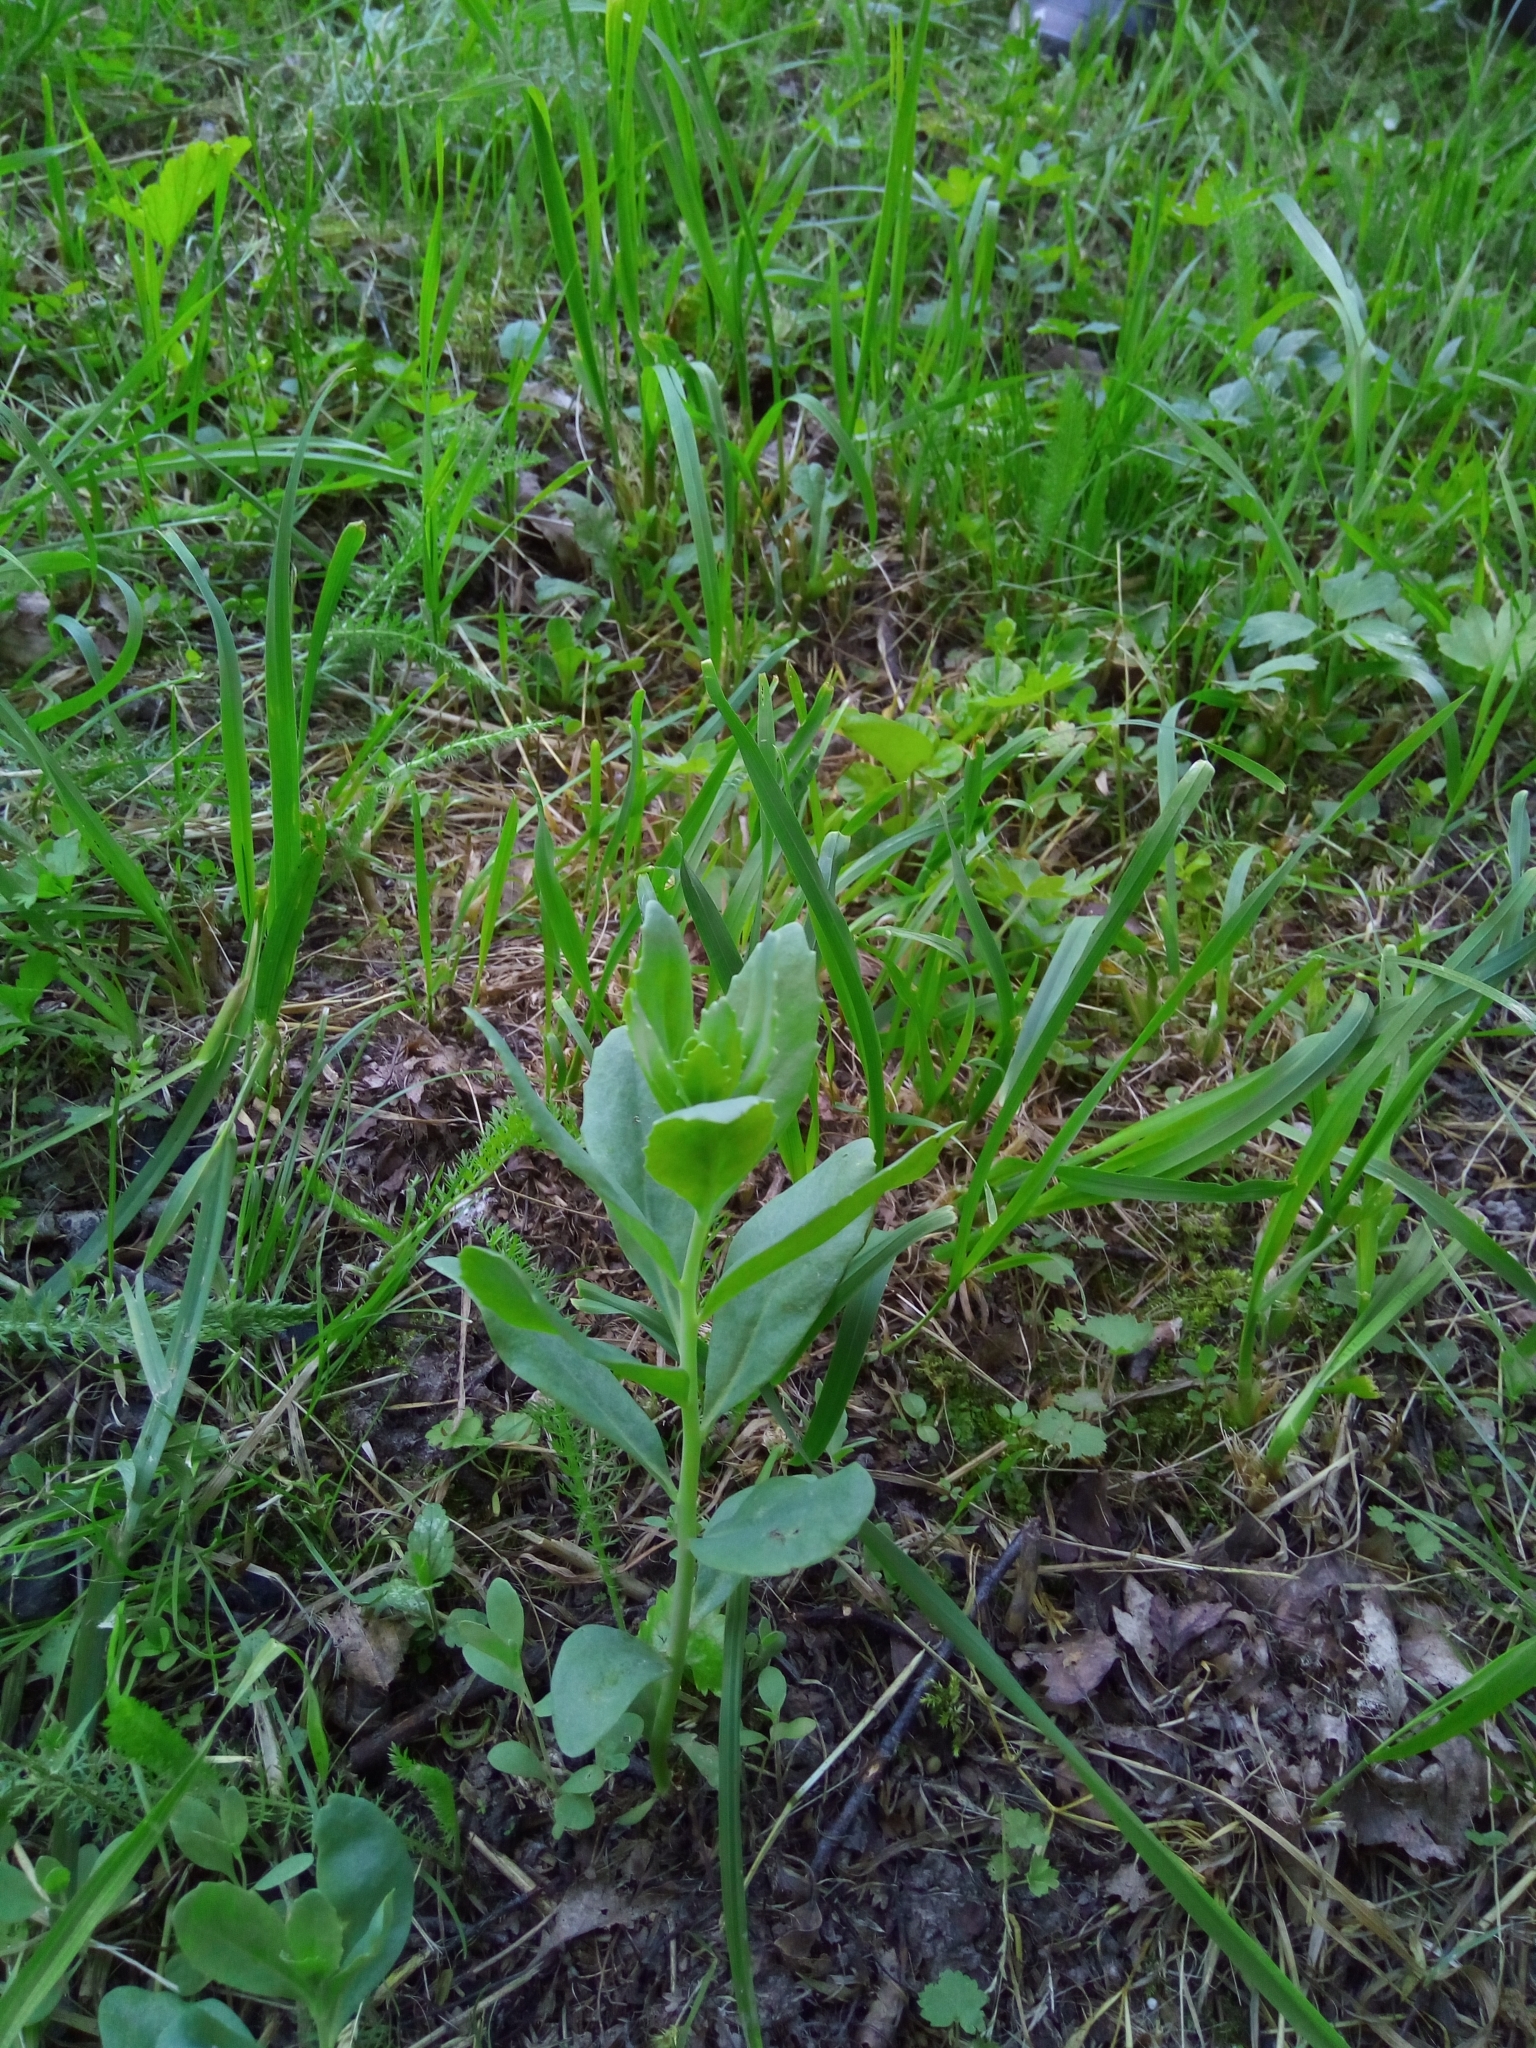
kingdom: Plantae
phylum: Tracheophyta
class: Magnoliopsida
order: Saxifragales
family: Crassulaceae
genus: Hylotelephium
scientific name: Hylotelephium telephium
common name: Live-forever
